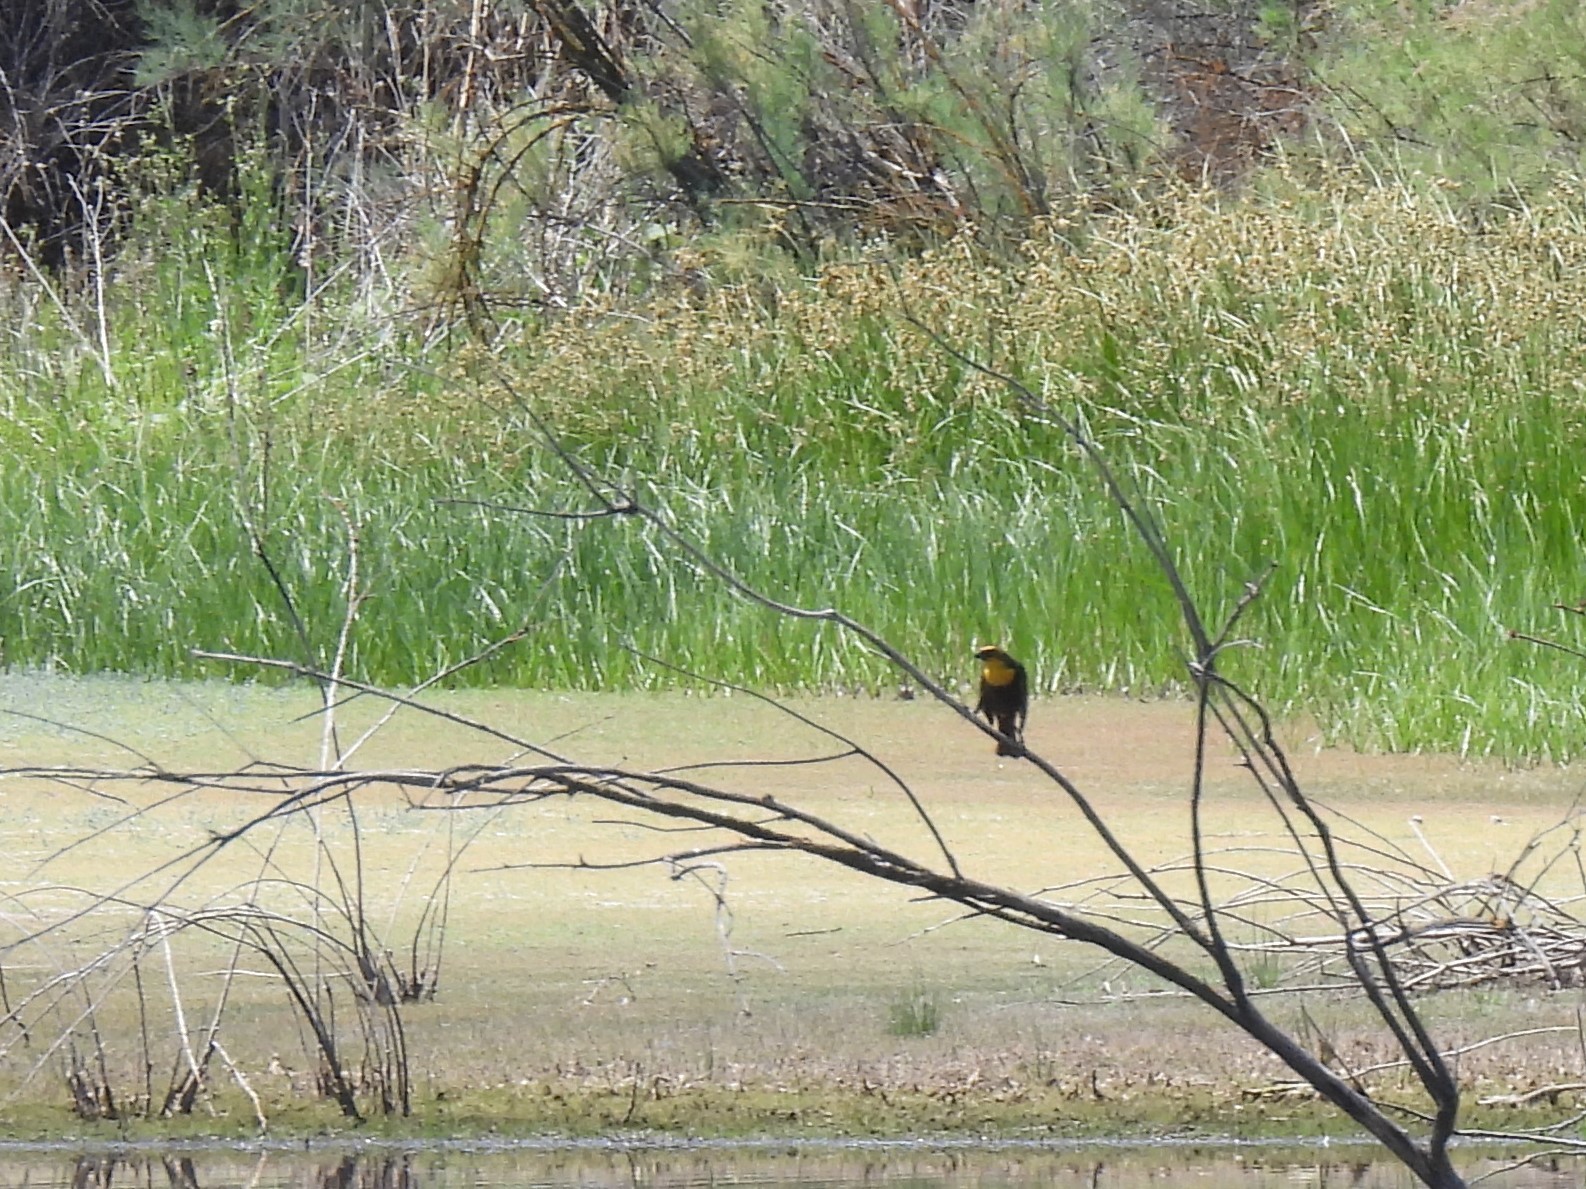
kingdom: Animalia
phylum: Chordata
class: Aves
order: Passeriformes
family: Icteridae
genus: Xanthocephalus
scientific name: Xanthocephalus xanthocephalus
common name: Yellow-headed blackbird
